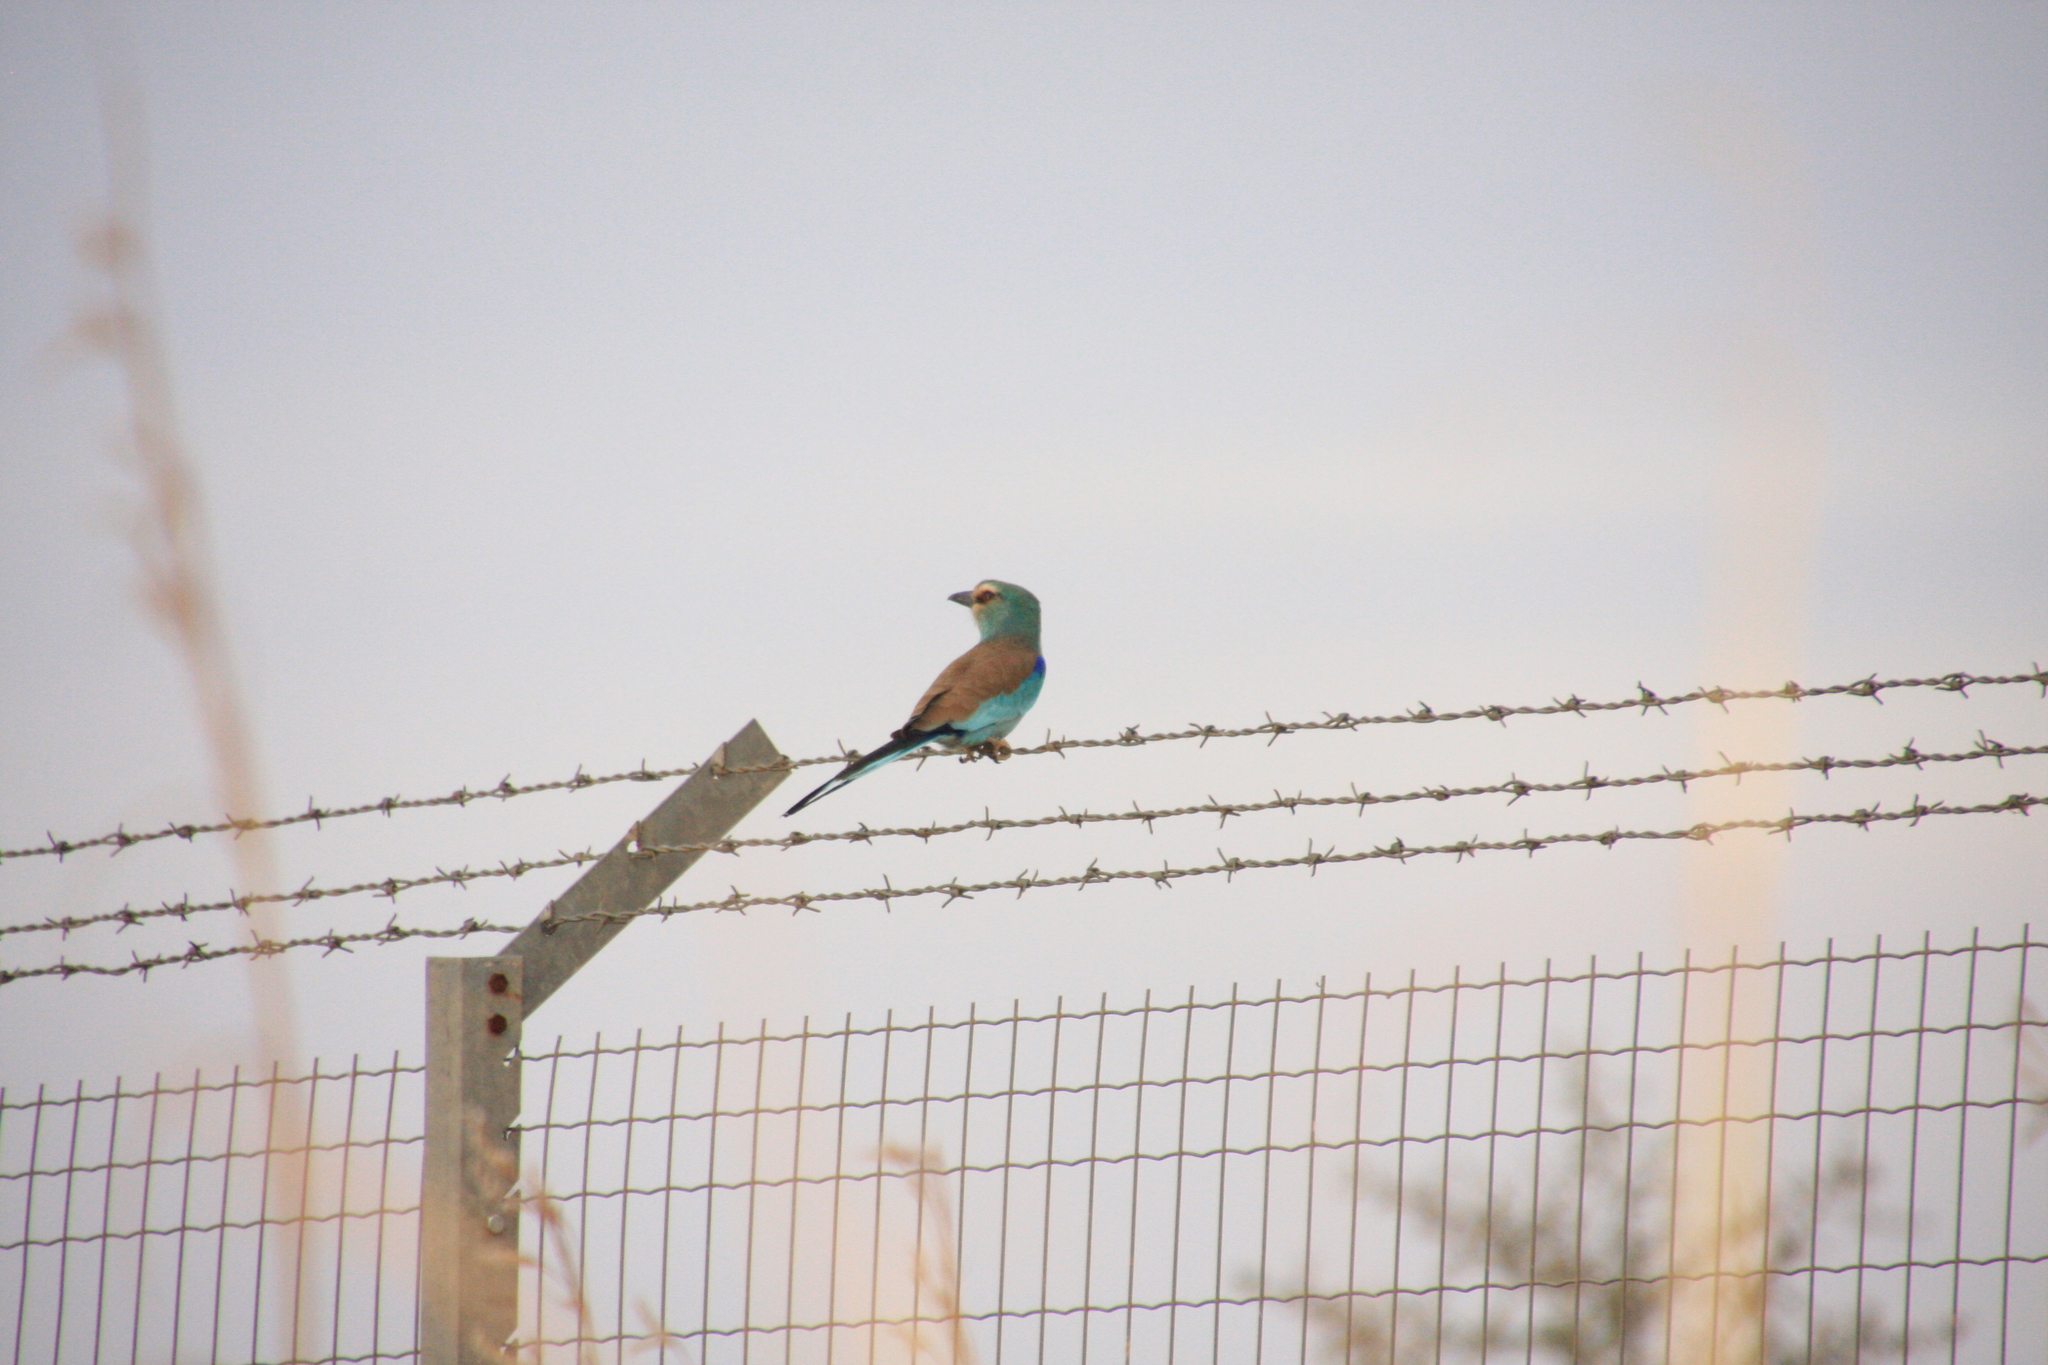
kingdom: Animalia
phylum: Chordata
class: Aves
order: Coraciiformes
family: Coraciidae
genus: Coracias
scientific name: Coracias abyssinicus
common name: Abyssinian roller
